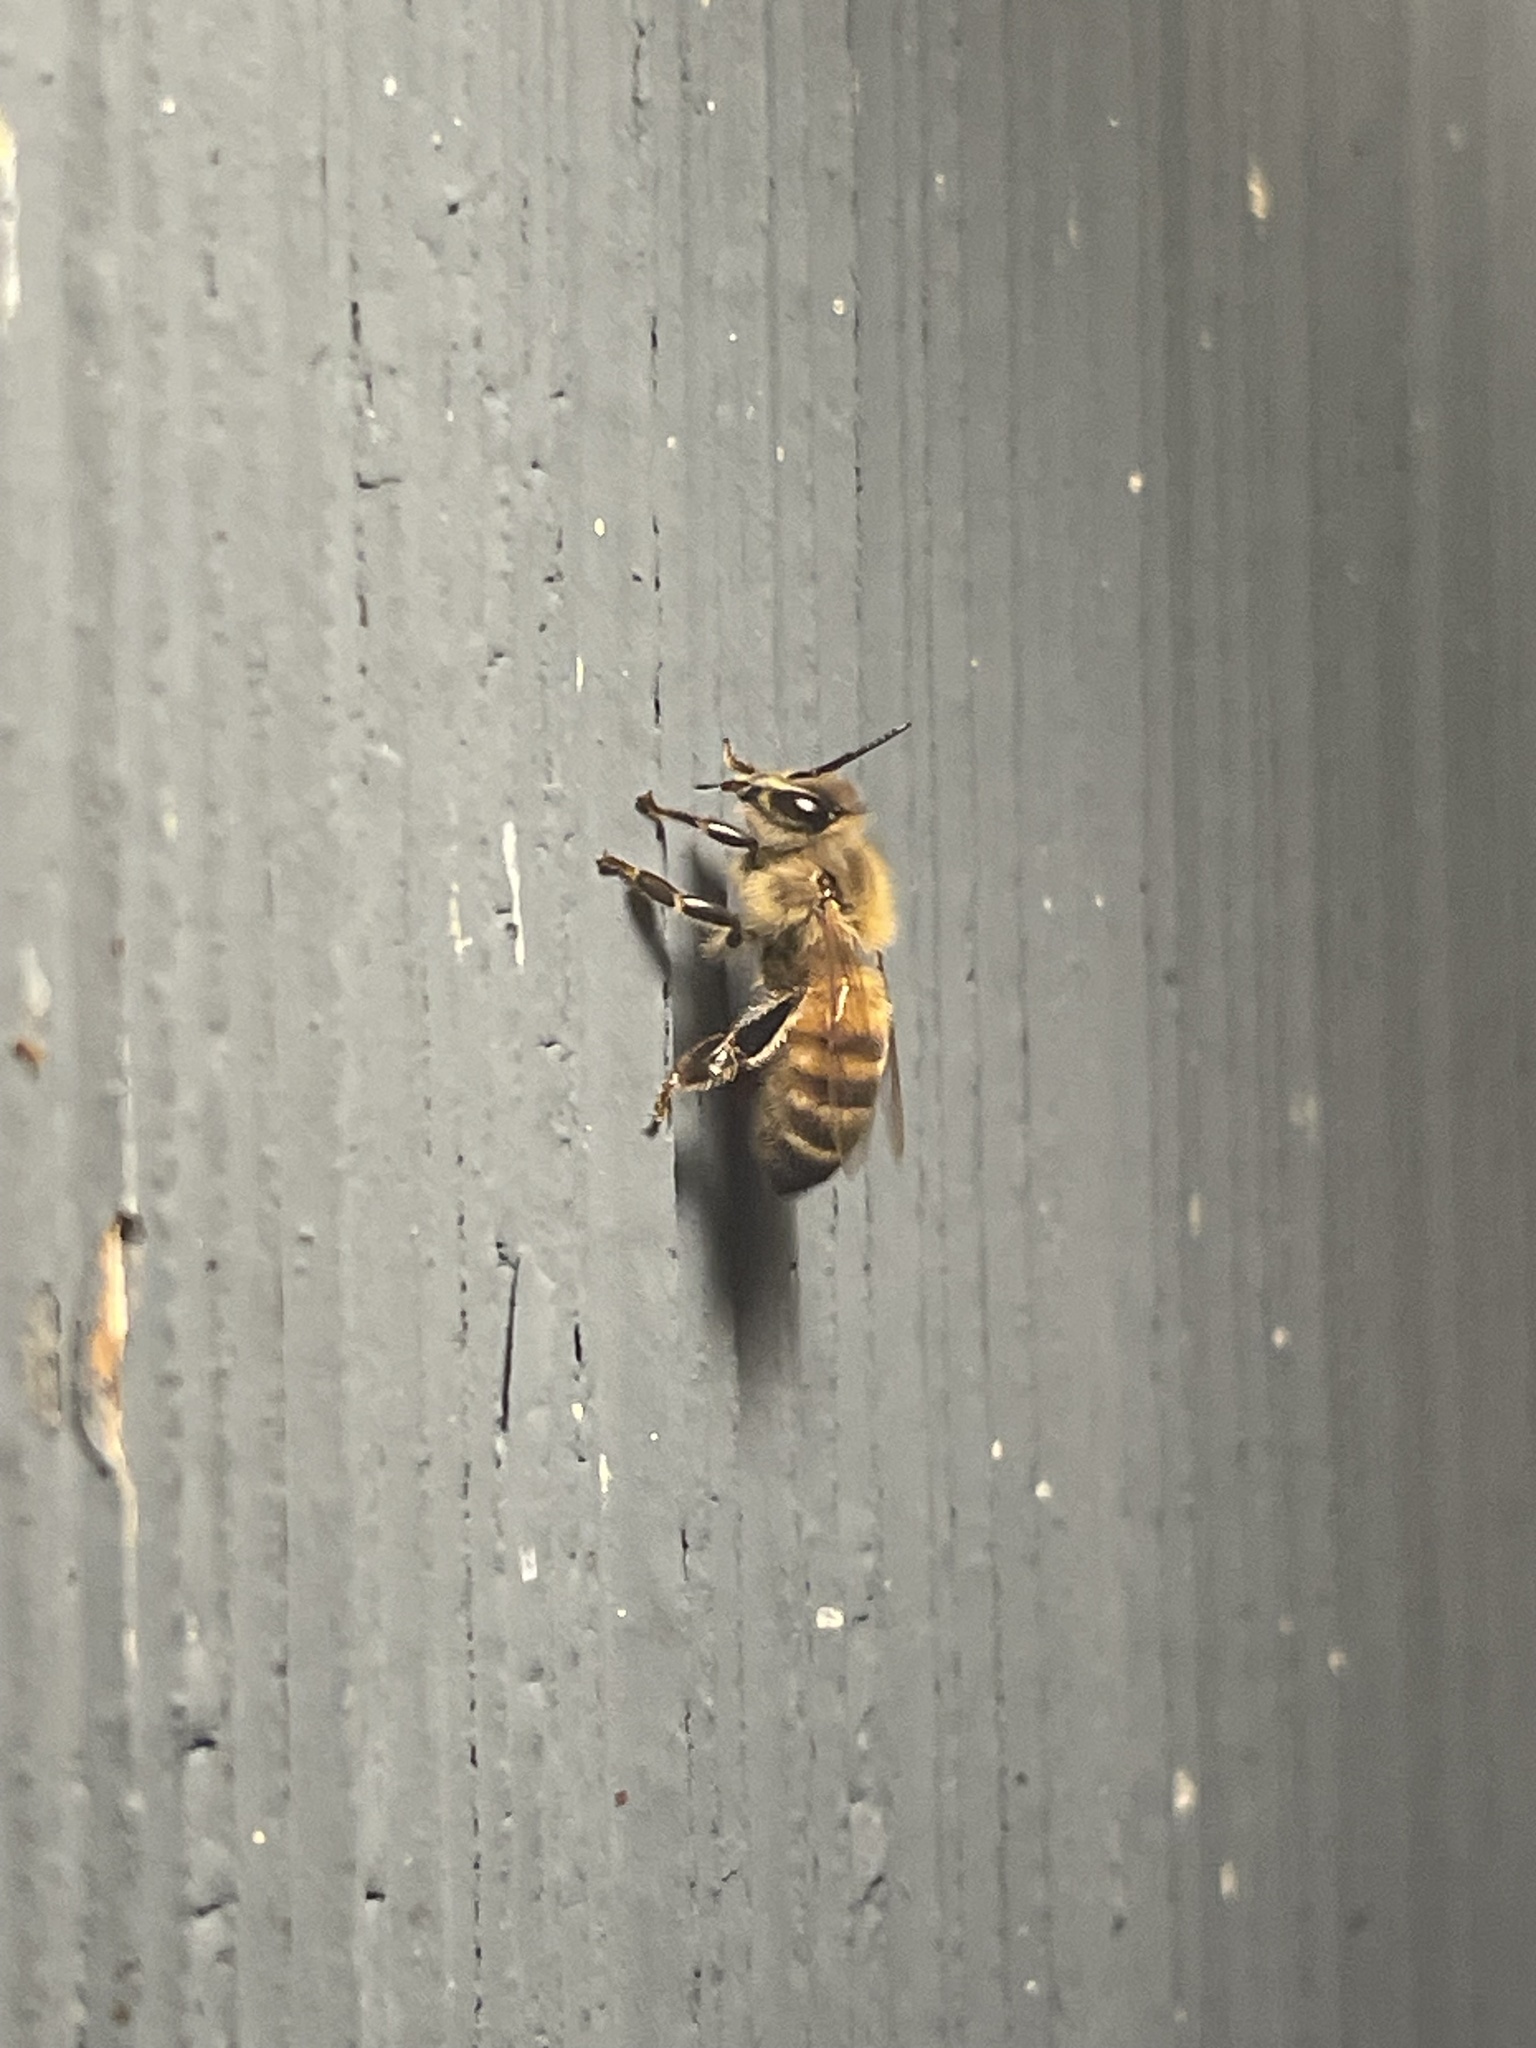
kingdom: Animalia
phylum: Arthropoda
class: Insecta
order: Hymenoptera
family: Apidae
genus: Apis
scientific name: Apis mellifera
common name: Honey bee
